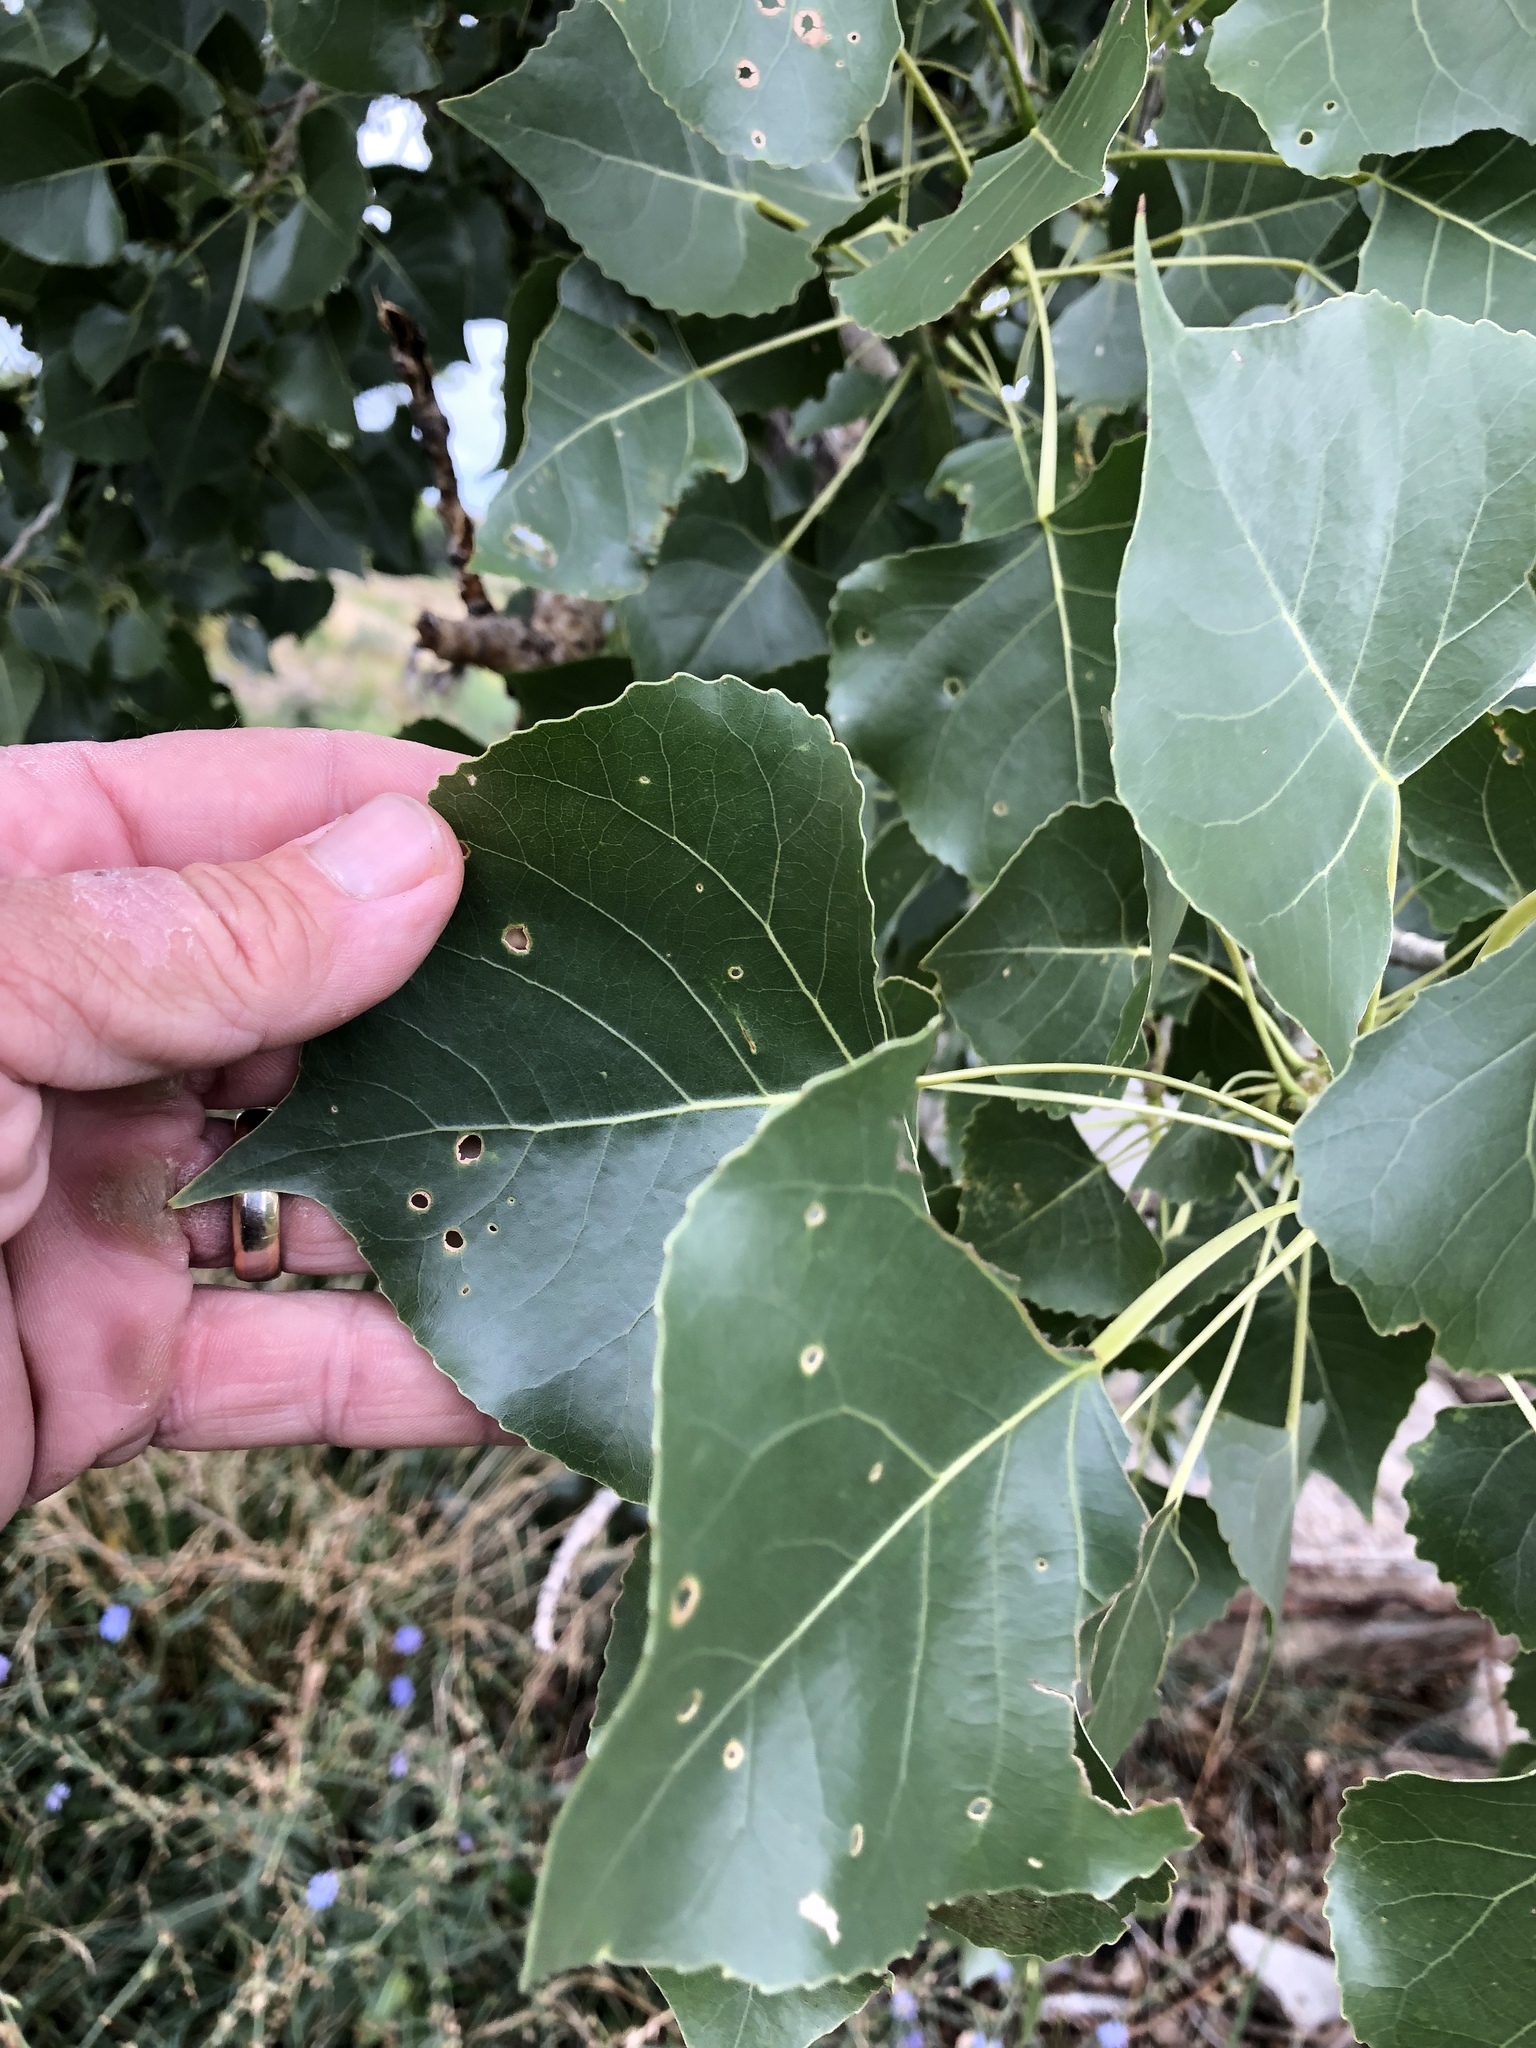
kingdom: Plantae
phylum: Tracheophyta
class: Magnoliopsida
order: Malpighiales
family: Salicaceae
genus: Populus
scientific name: Populus deltoides
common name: Eastern cottonwood
